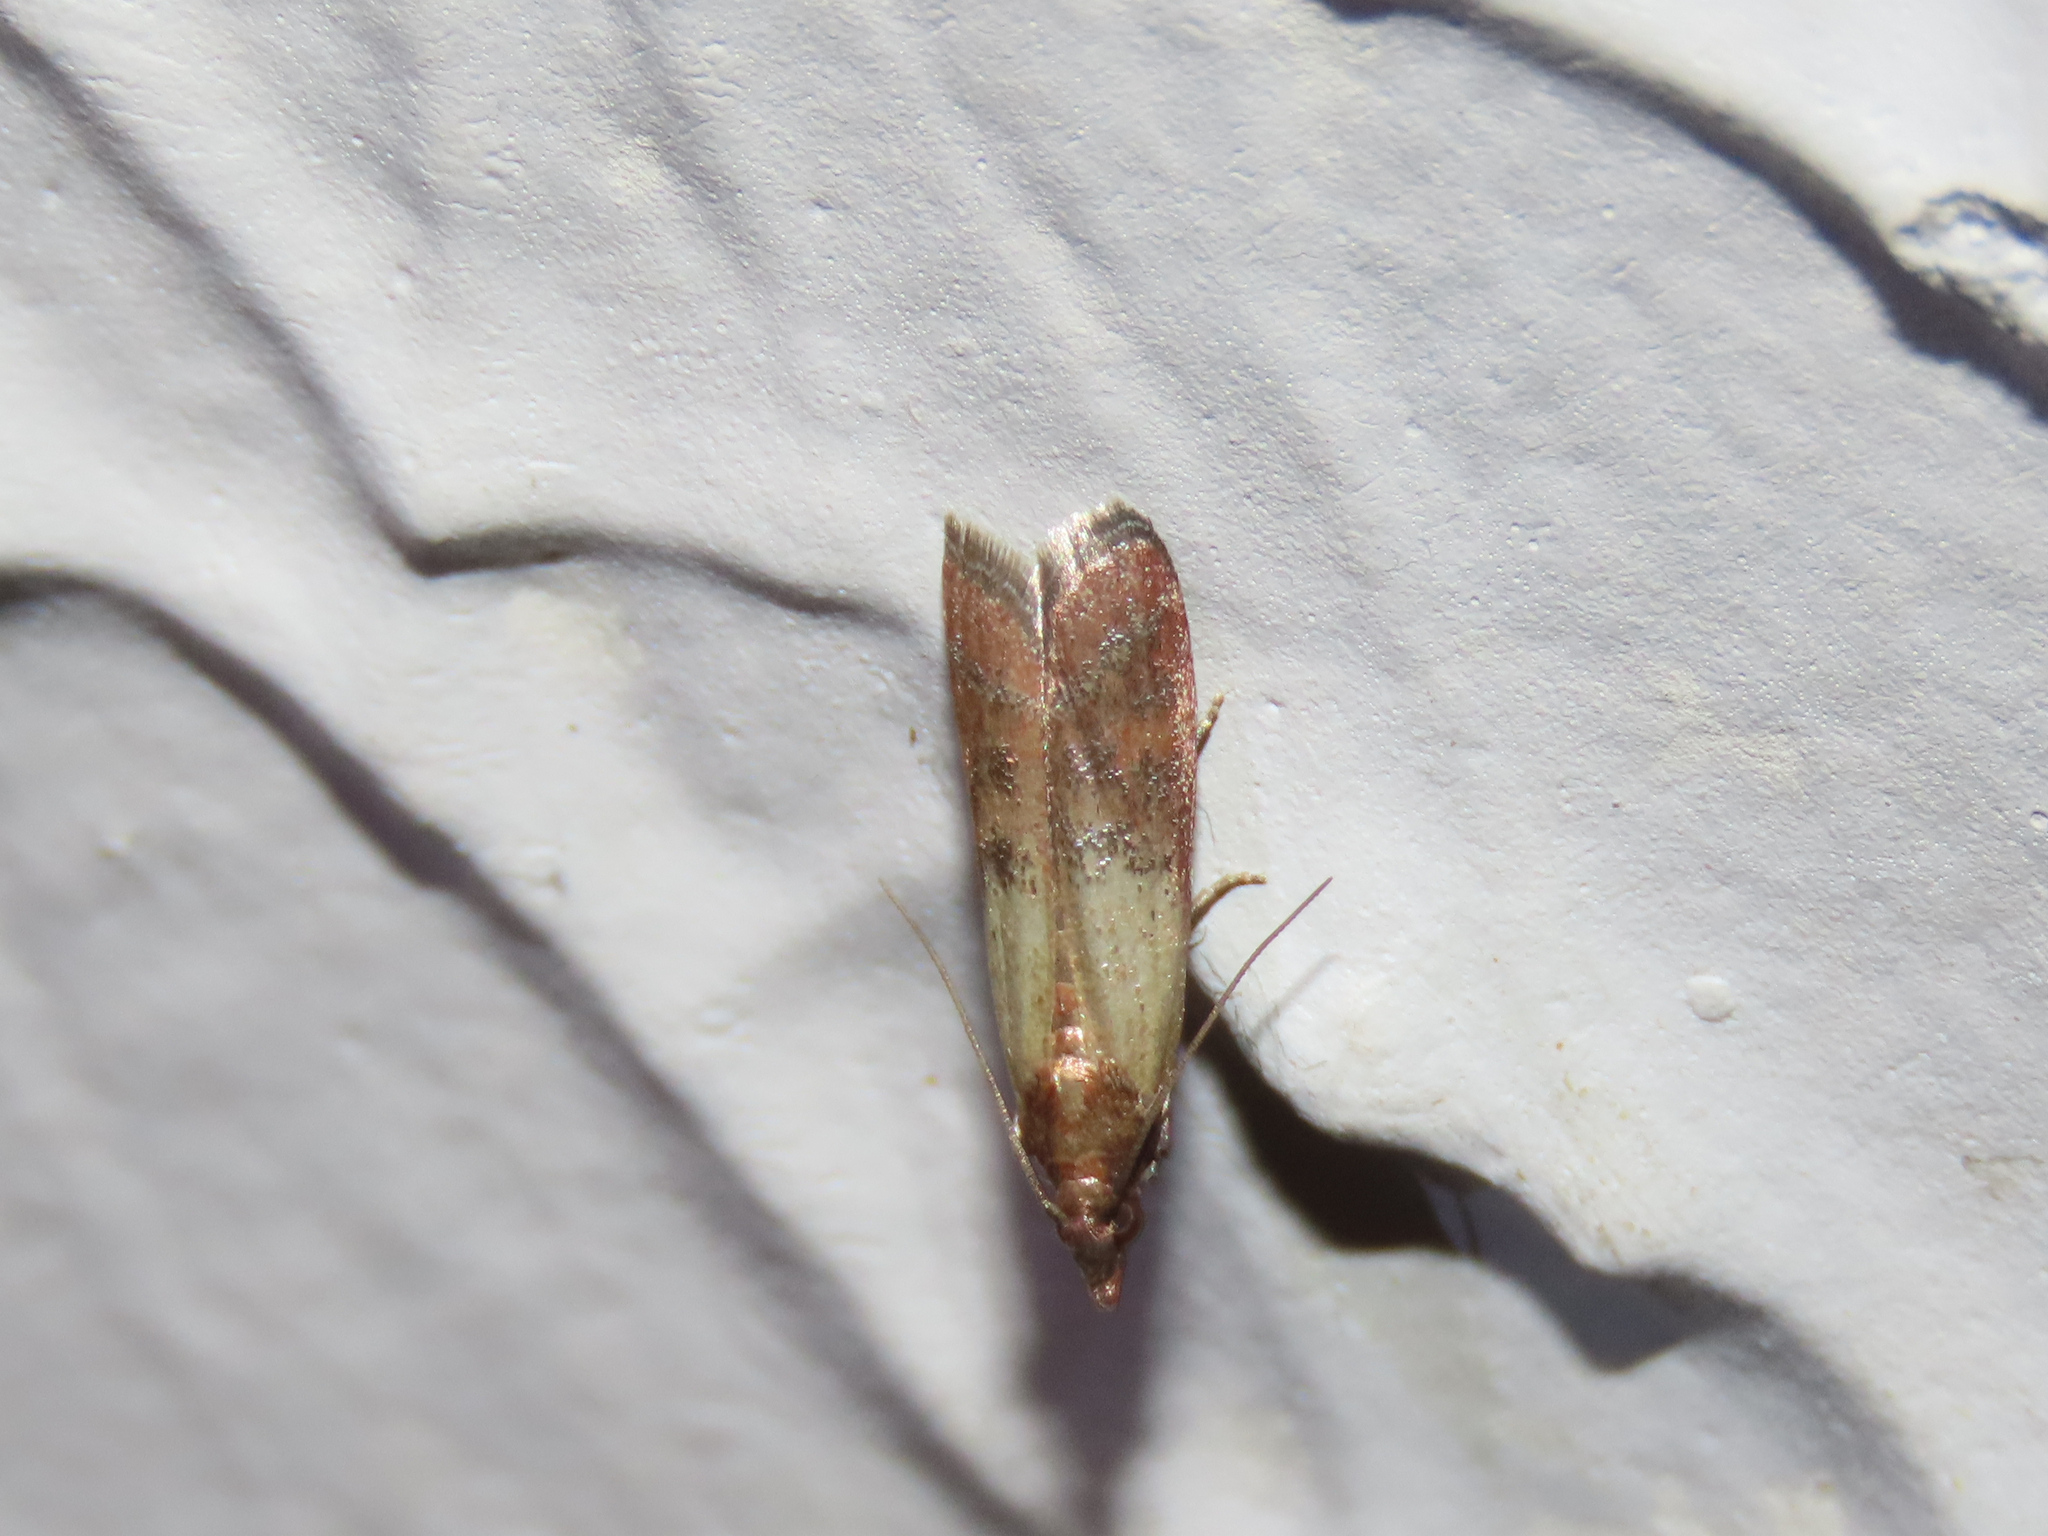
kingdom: Animalia
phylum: Arthropoda
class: Insecta
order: Lepidoptera
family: Pyralidae
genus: Plodia
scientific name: Plodia interpunctella
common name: Indian meal moth
